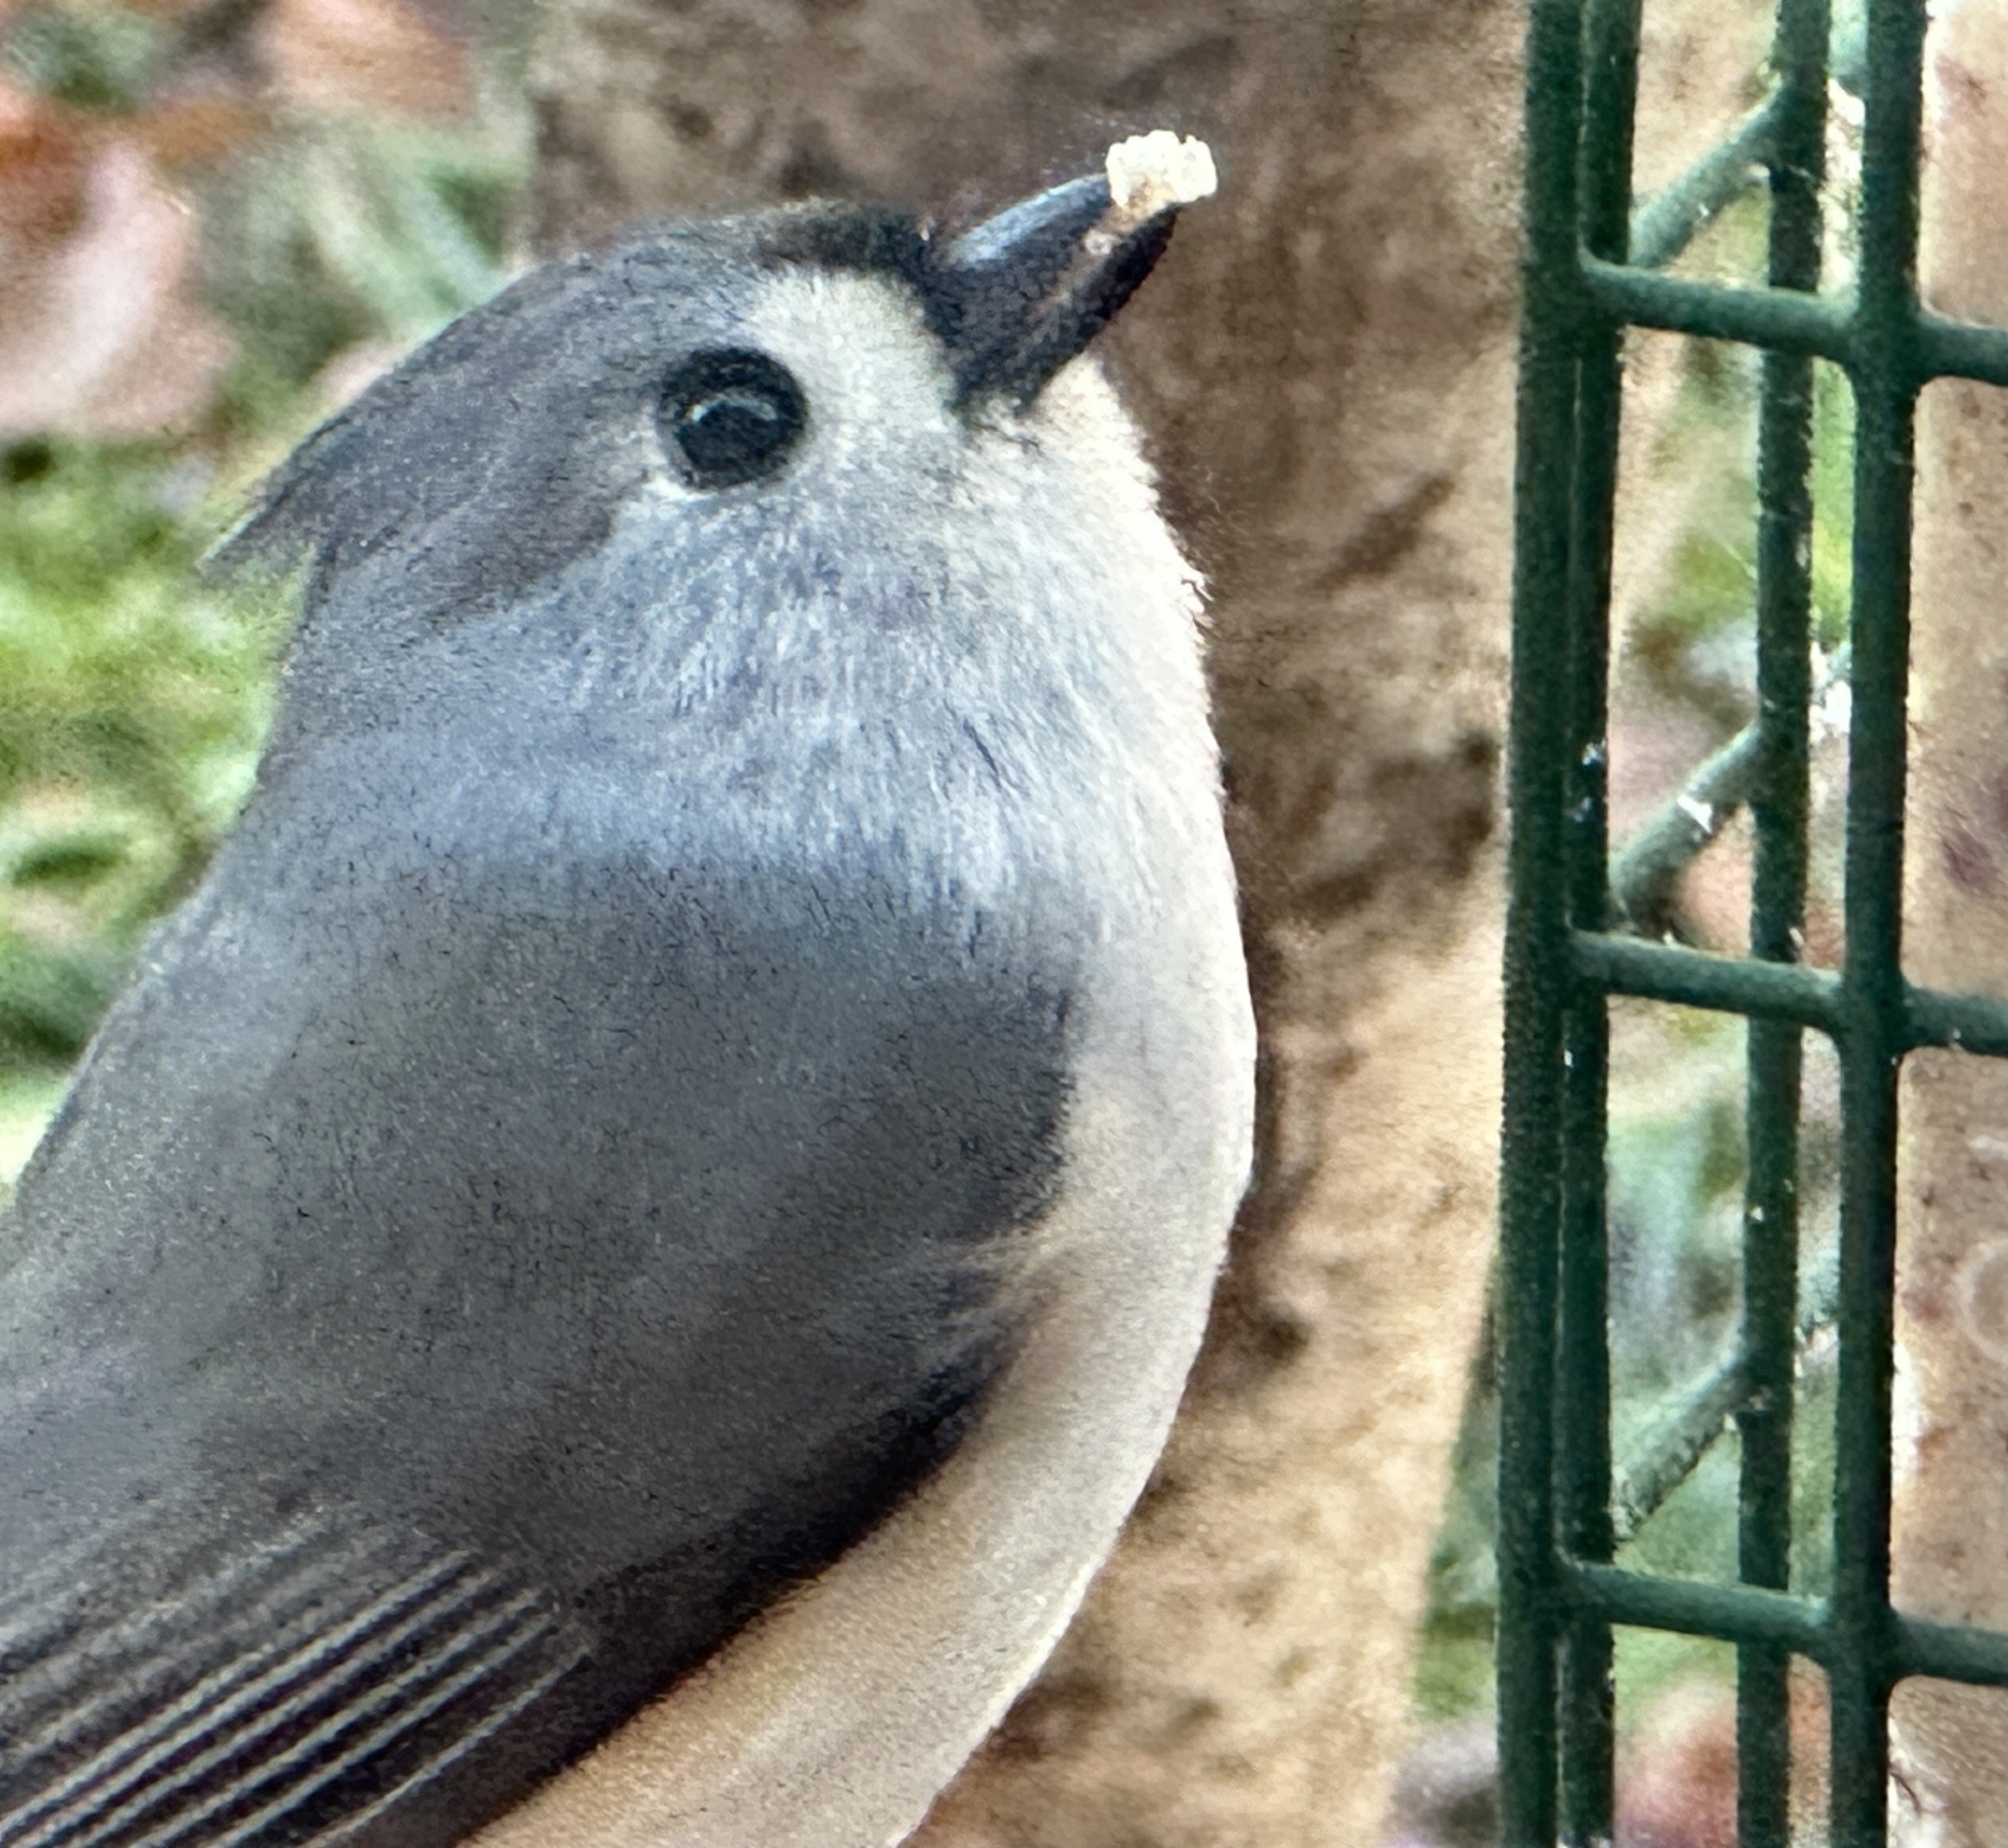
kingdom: Animalia
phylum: Chordata
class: Aves
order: Passeriformes
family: Paridae
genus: Baeolophus
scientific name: Baeolophus bicolor
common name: Tufted titmouse
